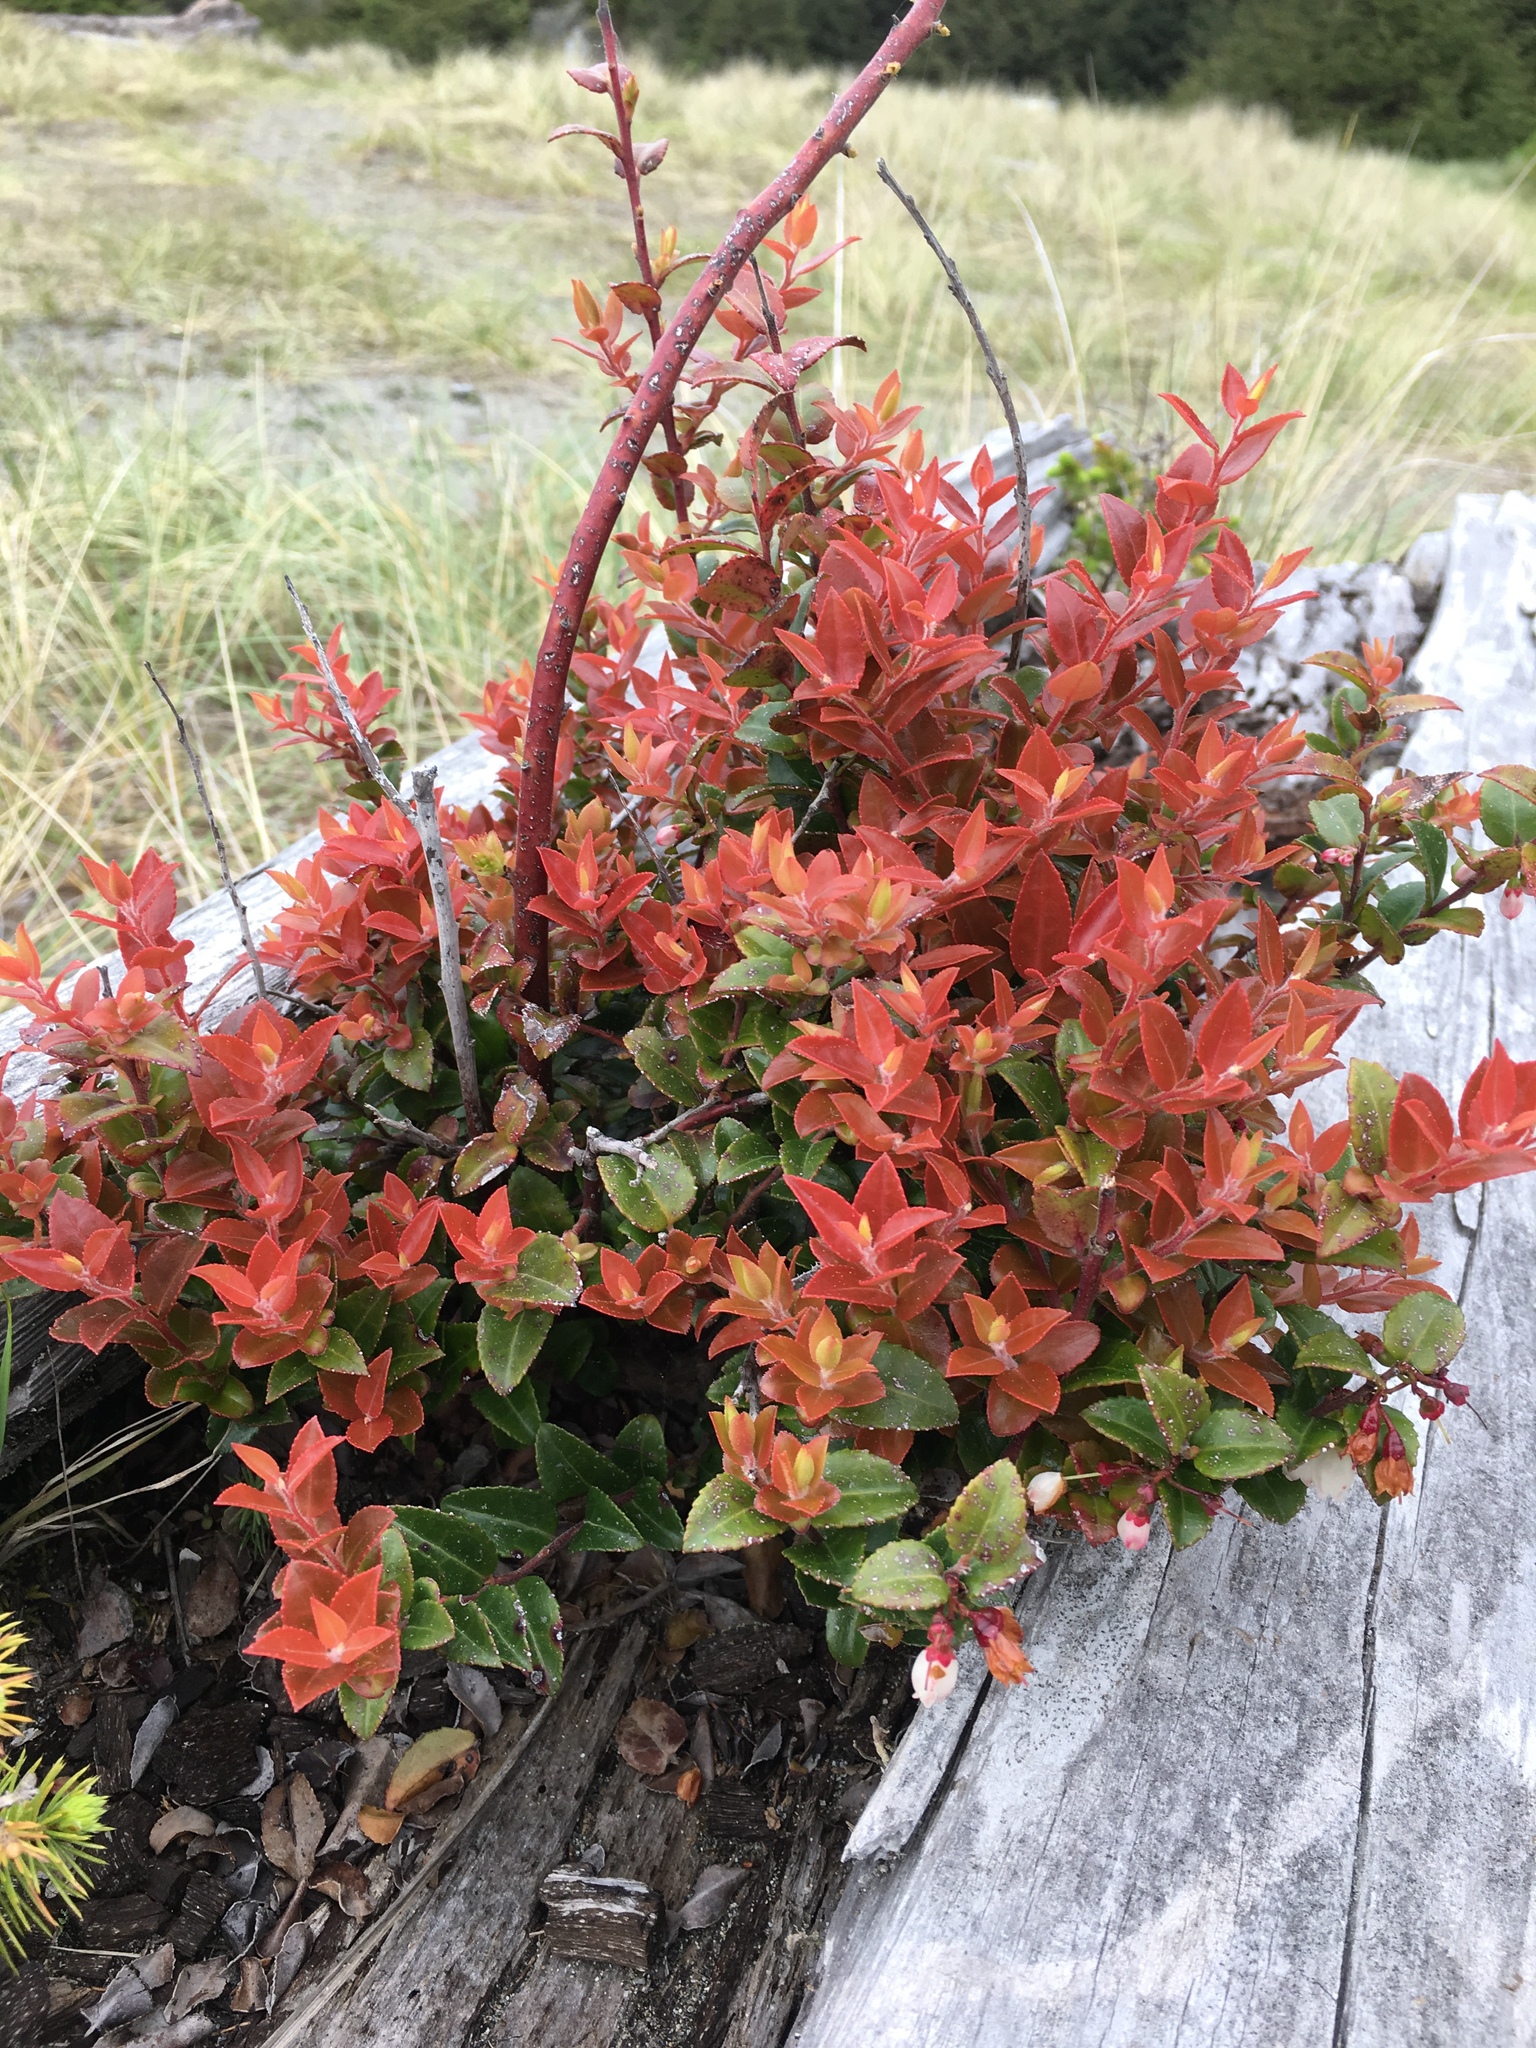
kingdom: Plantae
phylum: Tracheophyta
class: Magnoliopsida
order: Ericales
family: Ericaceae
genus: Vaccinium
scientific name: Vaccinium ovatum
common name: California-huckleberry
